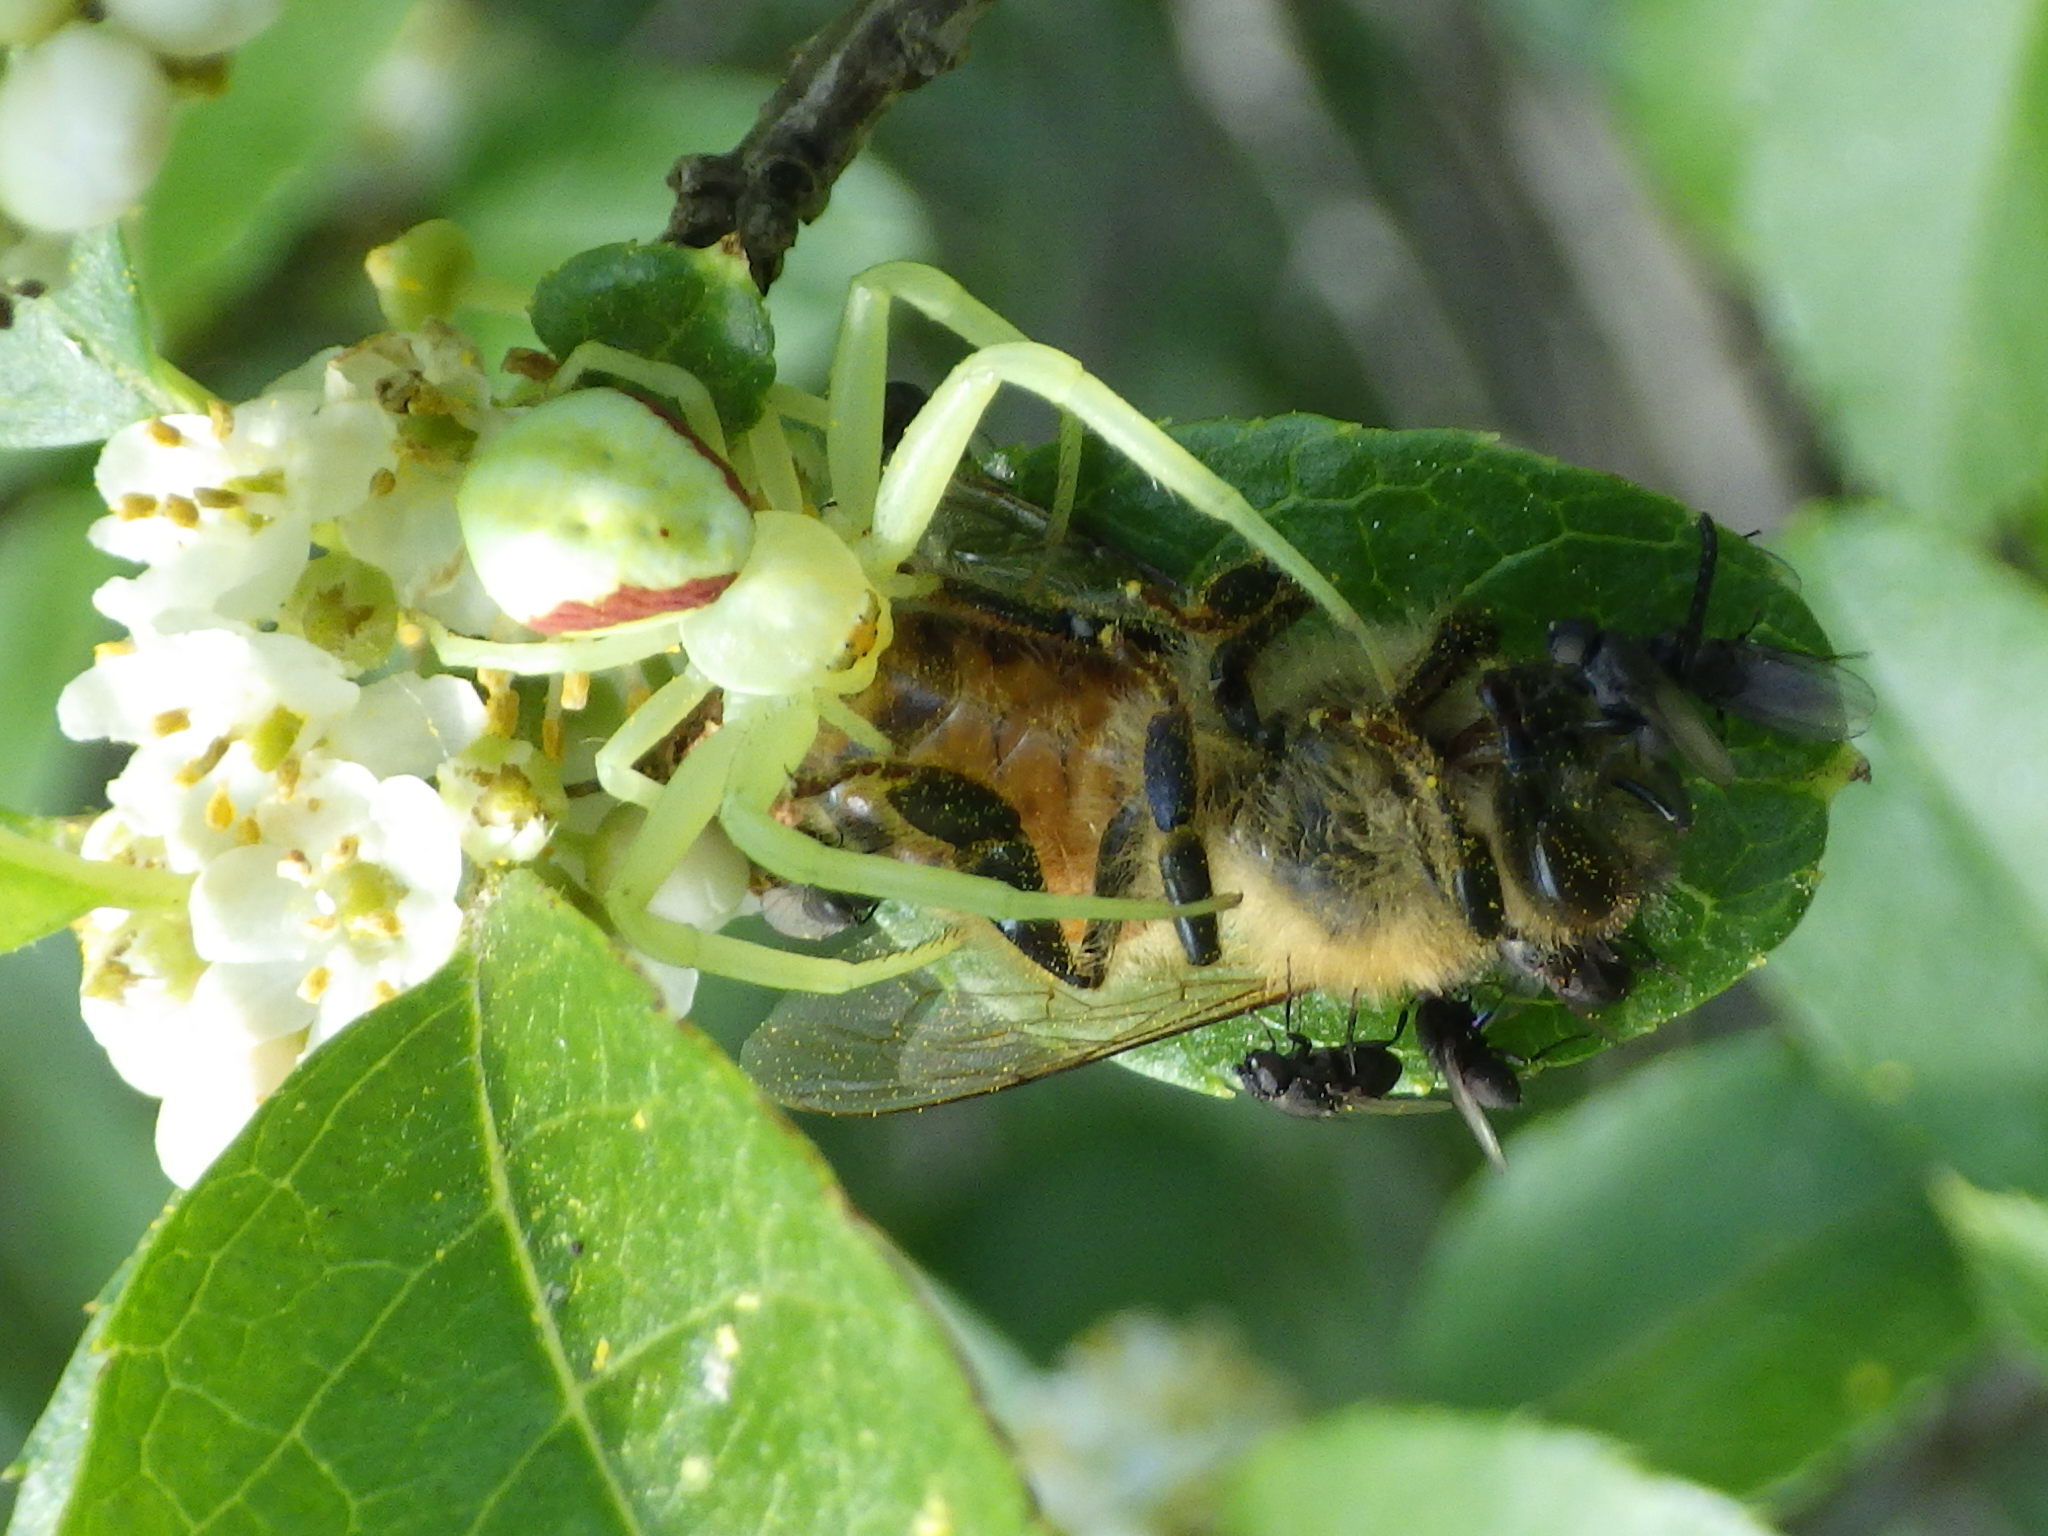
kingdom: Animalia
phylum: Arthropoda
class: Insecta
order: Hymenoptera
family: Apidae
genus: Apis
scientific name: Apis mellifera
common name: Honey bee
